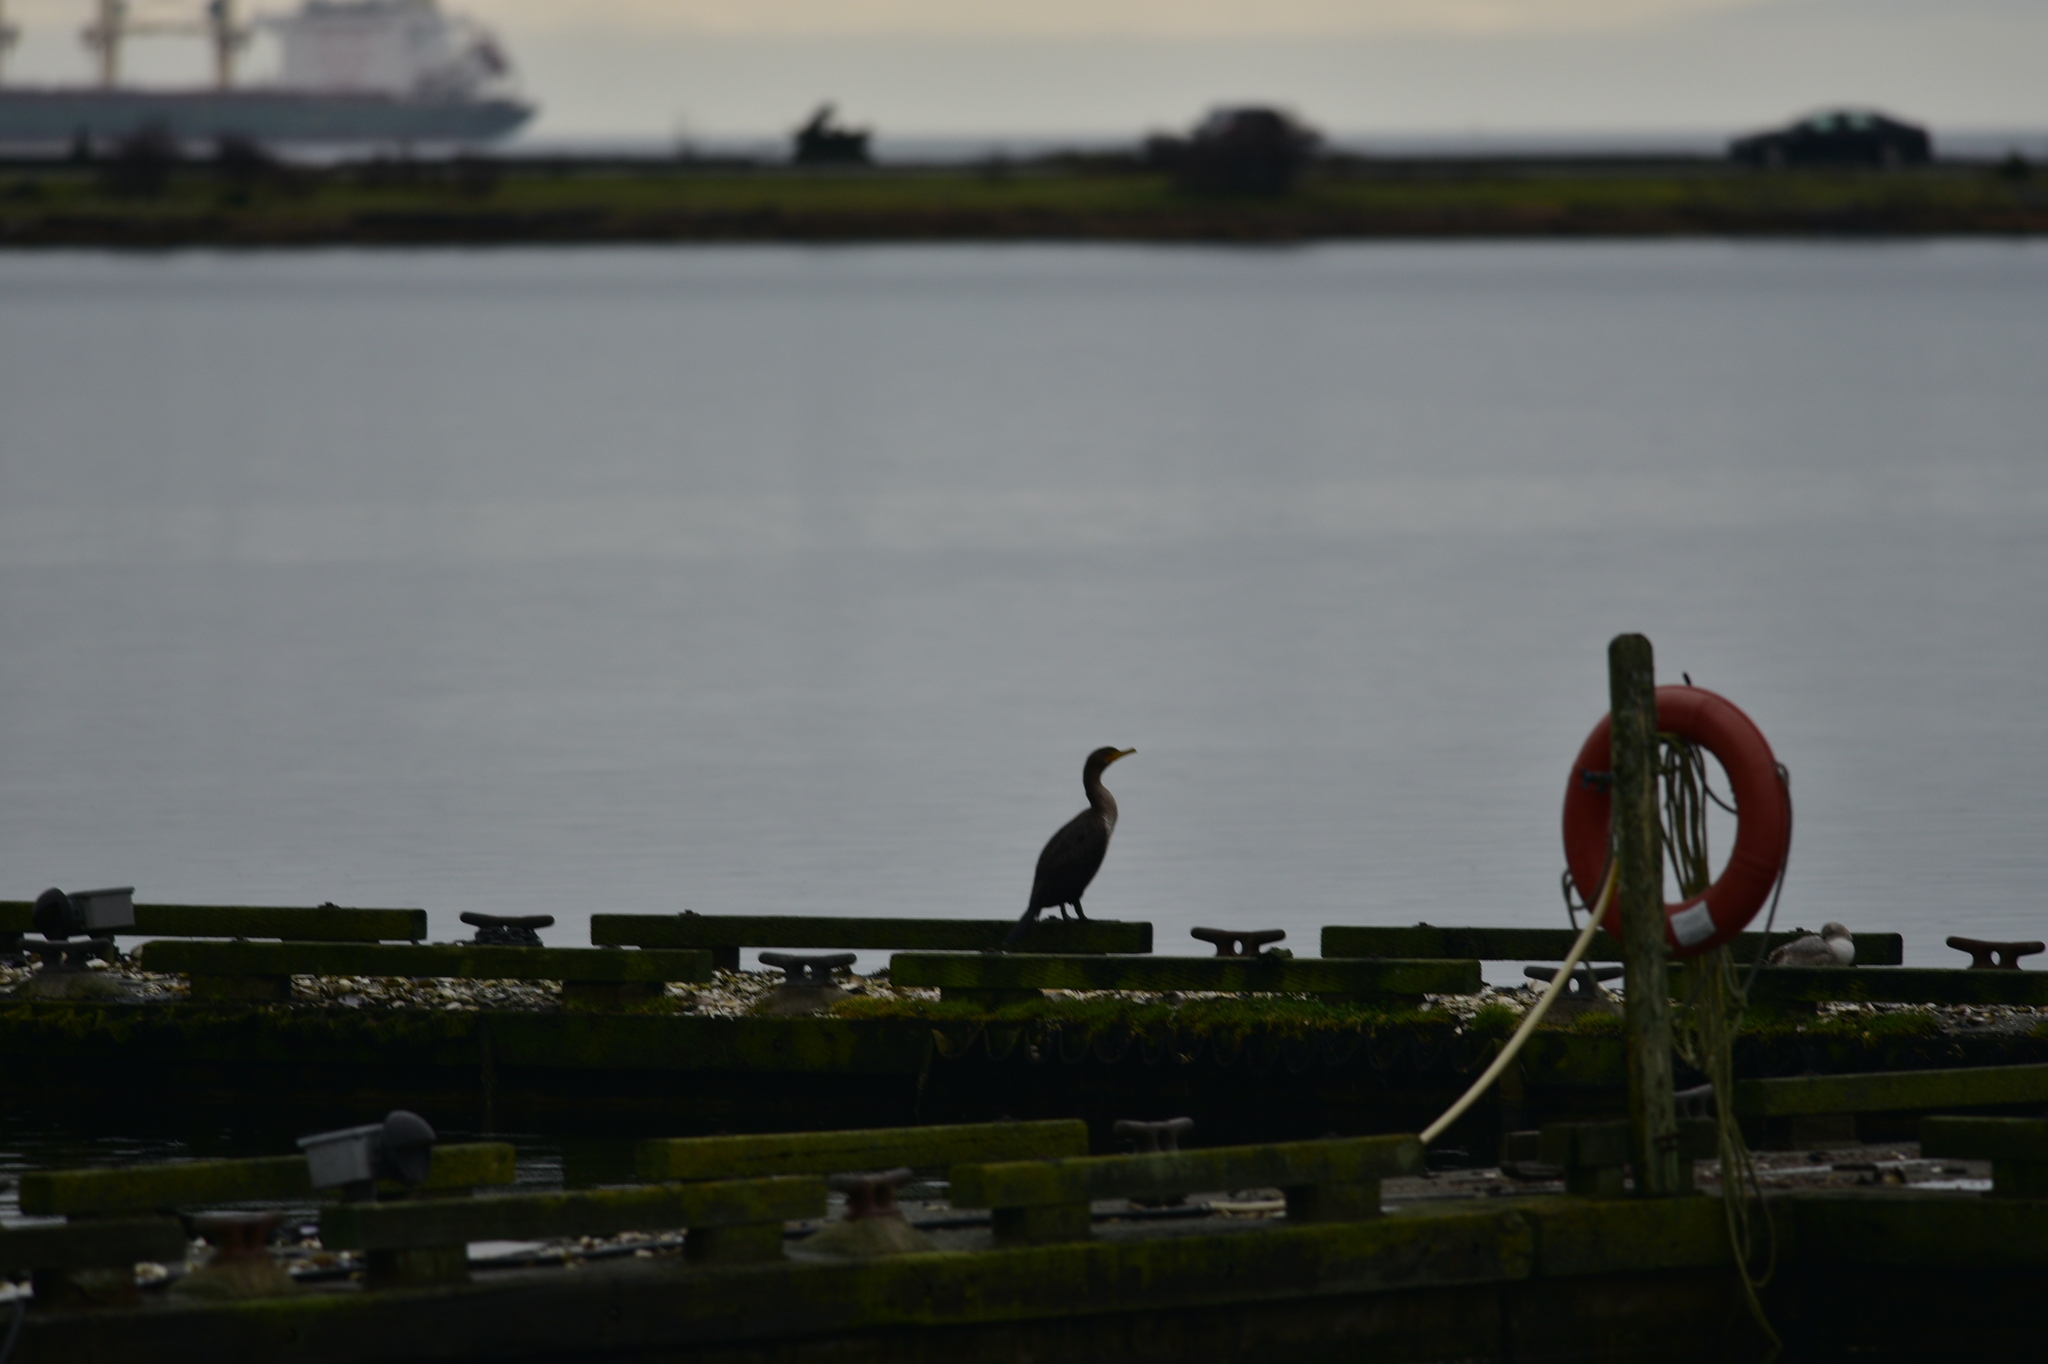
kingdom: Animalia
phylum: Chordata
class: Aves
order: Suliformes
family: Phalacrocoracidae
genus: Phalacrocorax
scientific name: Phalacrocorax auritus
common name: Double-crested cormorant
